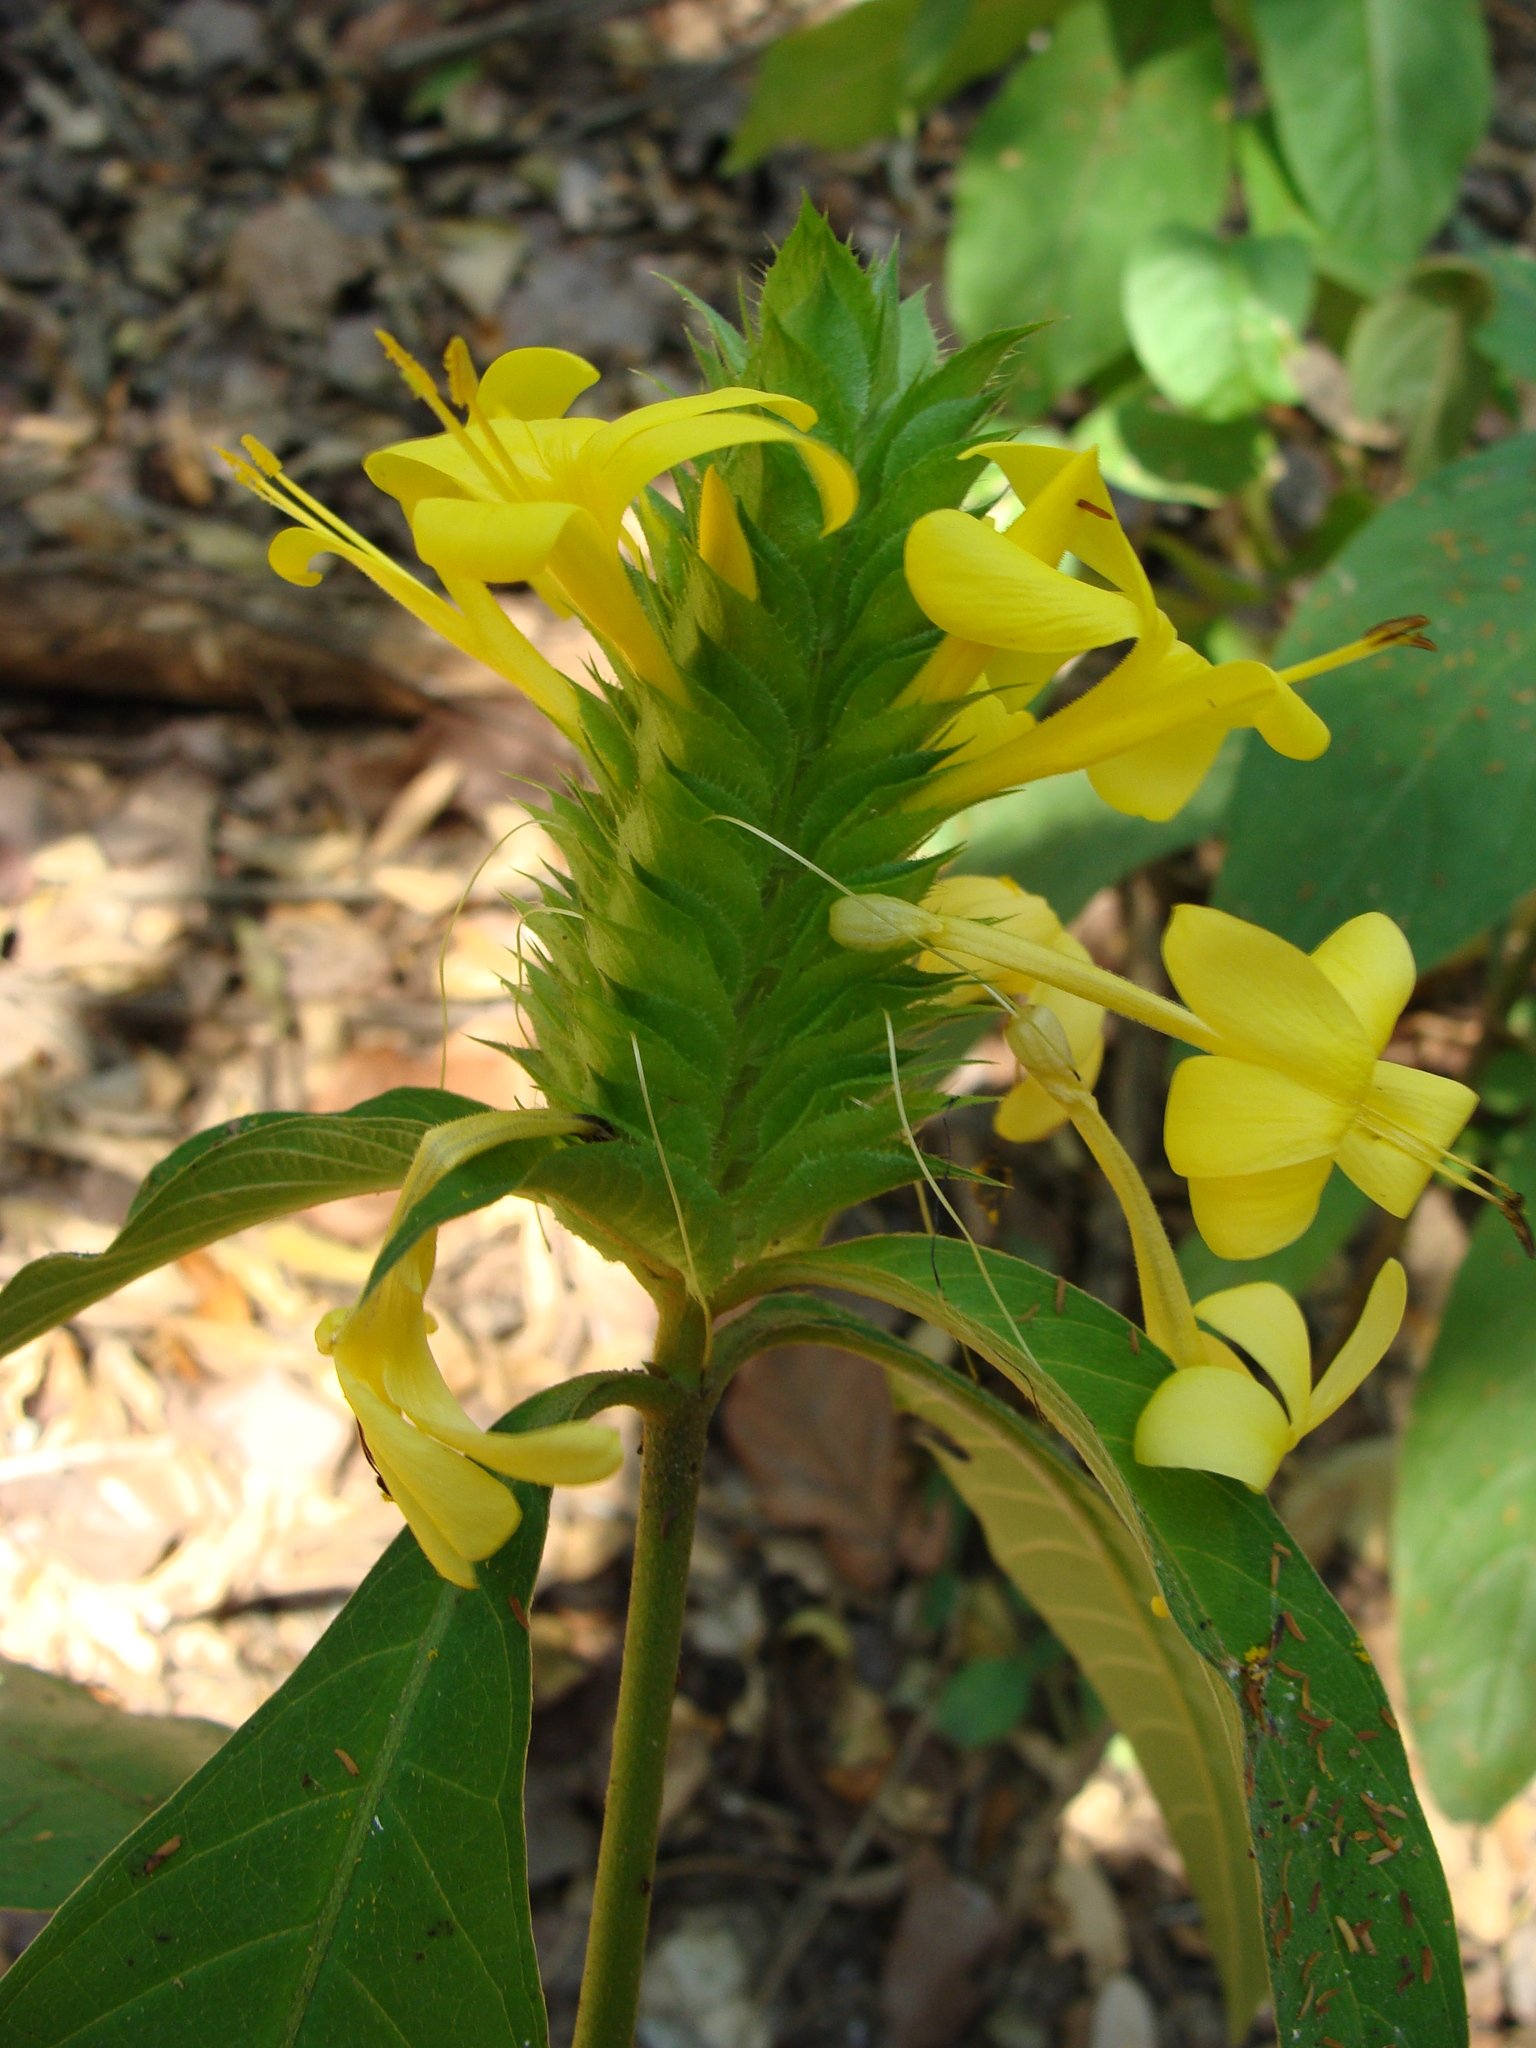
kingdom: Plantae
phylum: Tracheophyta
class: Magnoliopsida
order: Lamiales
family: Acanthaceae
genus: Barleria
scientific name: Barleria oenotheroides
